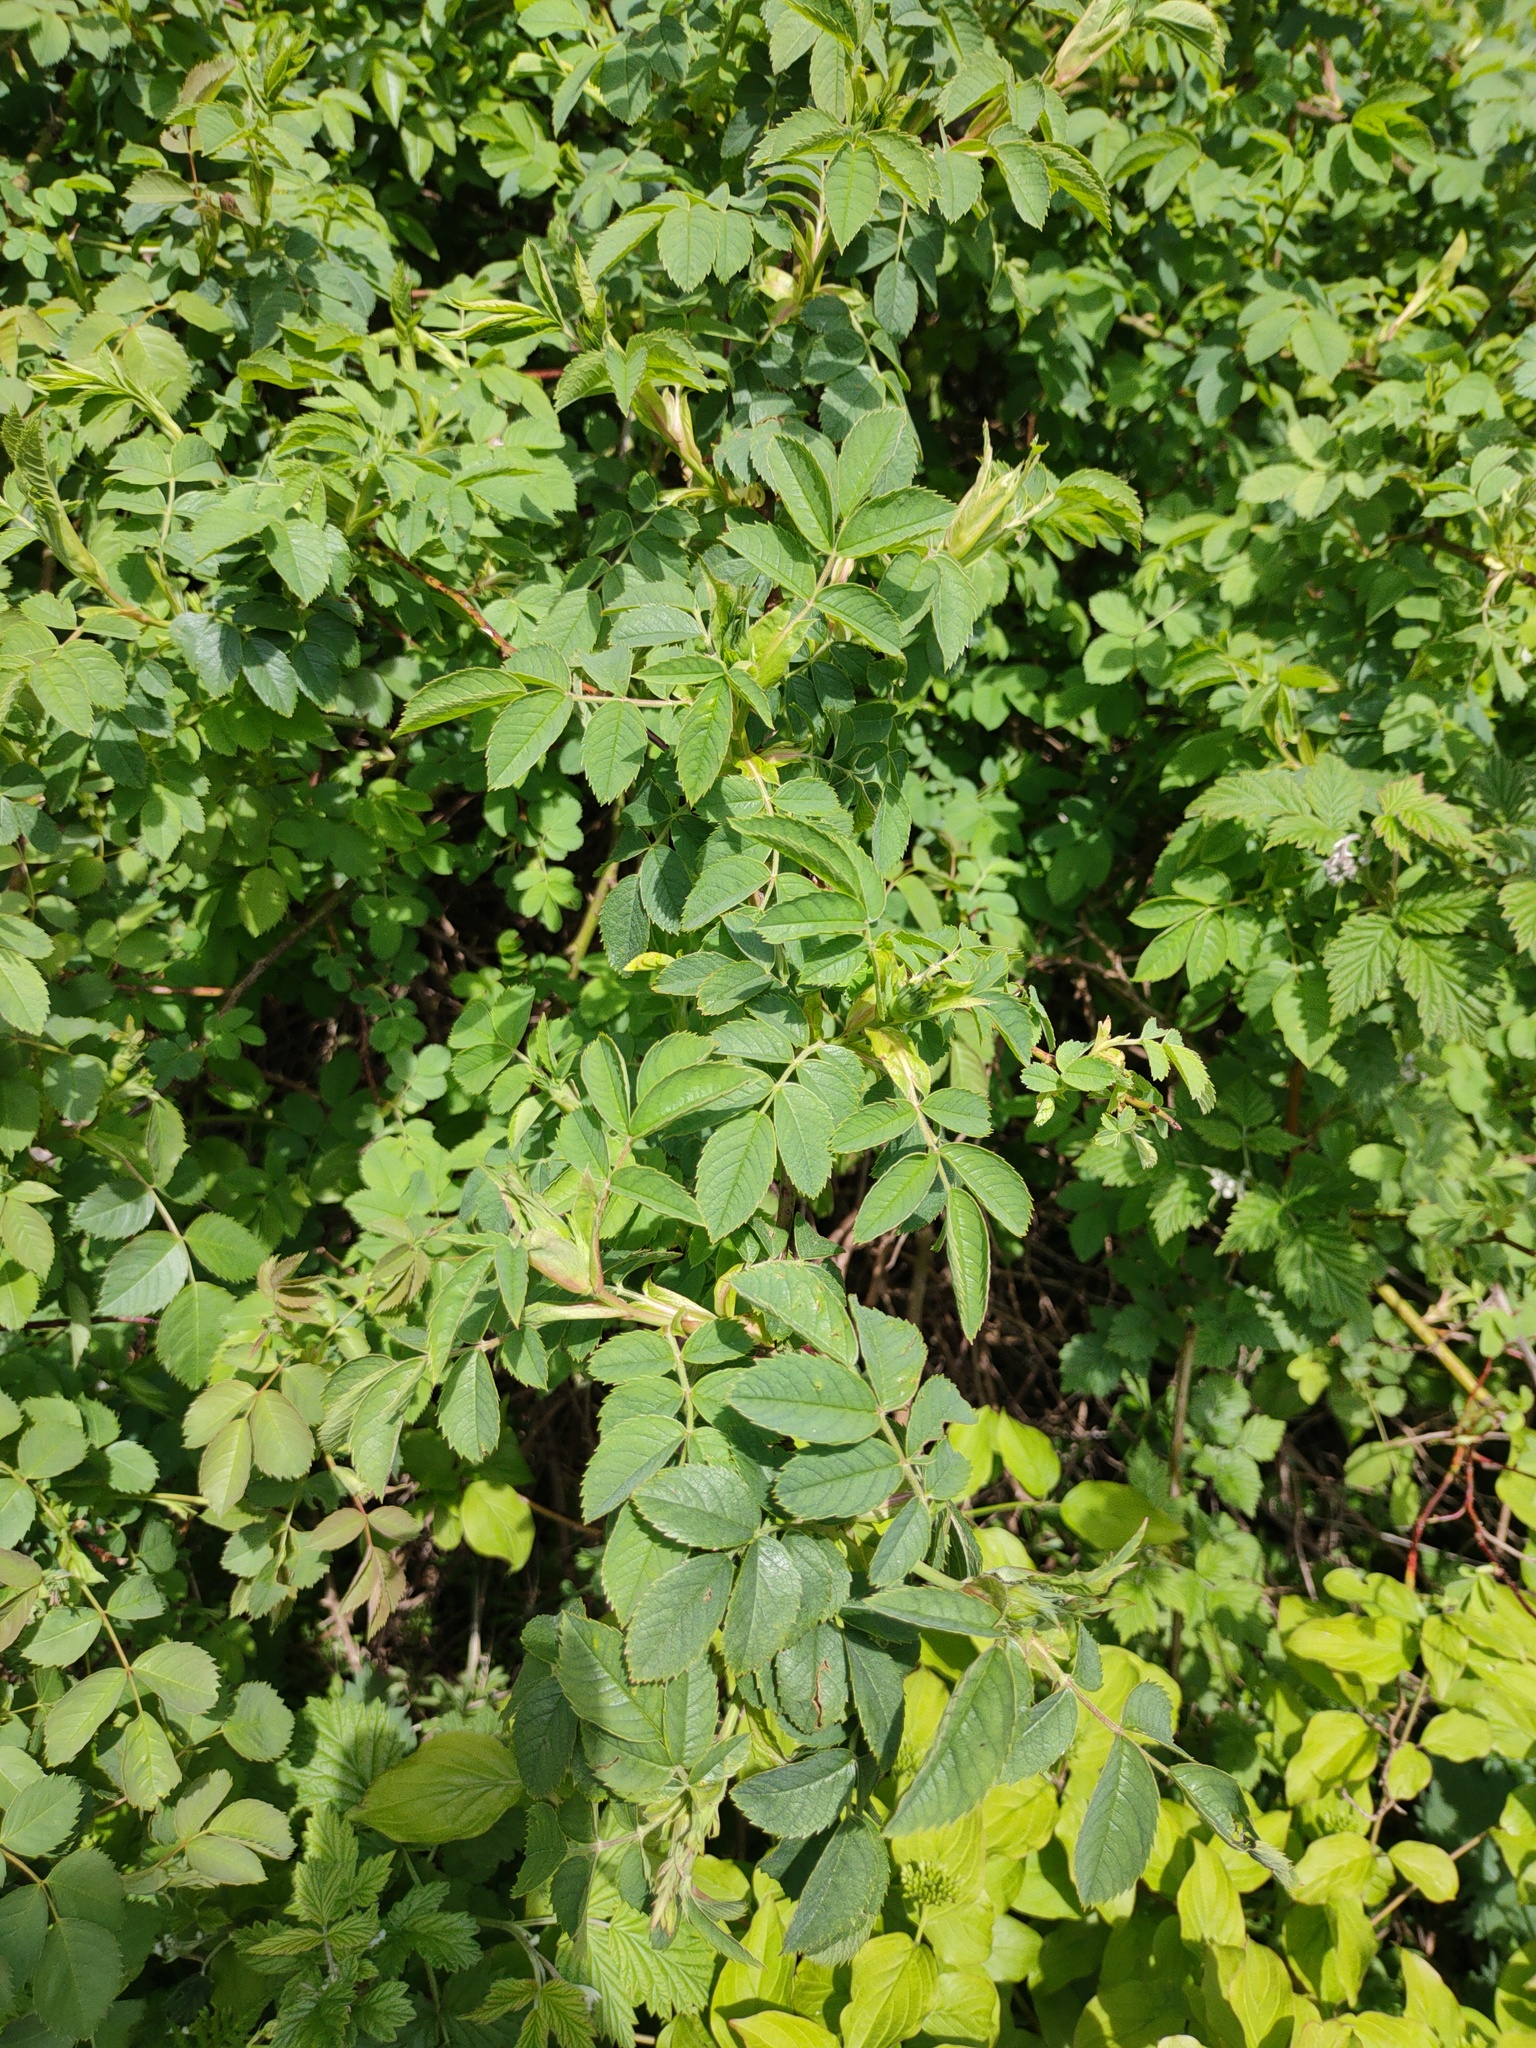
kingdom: Plantae
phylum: Tracheophyta
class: Magnoliopsida
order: Rosales
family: Rosaceae
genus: Rosa
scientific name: Rosa canina
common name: Dog rose
